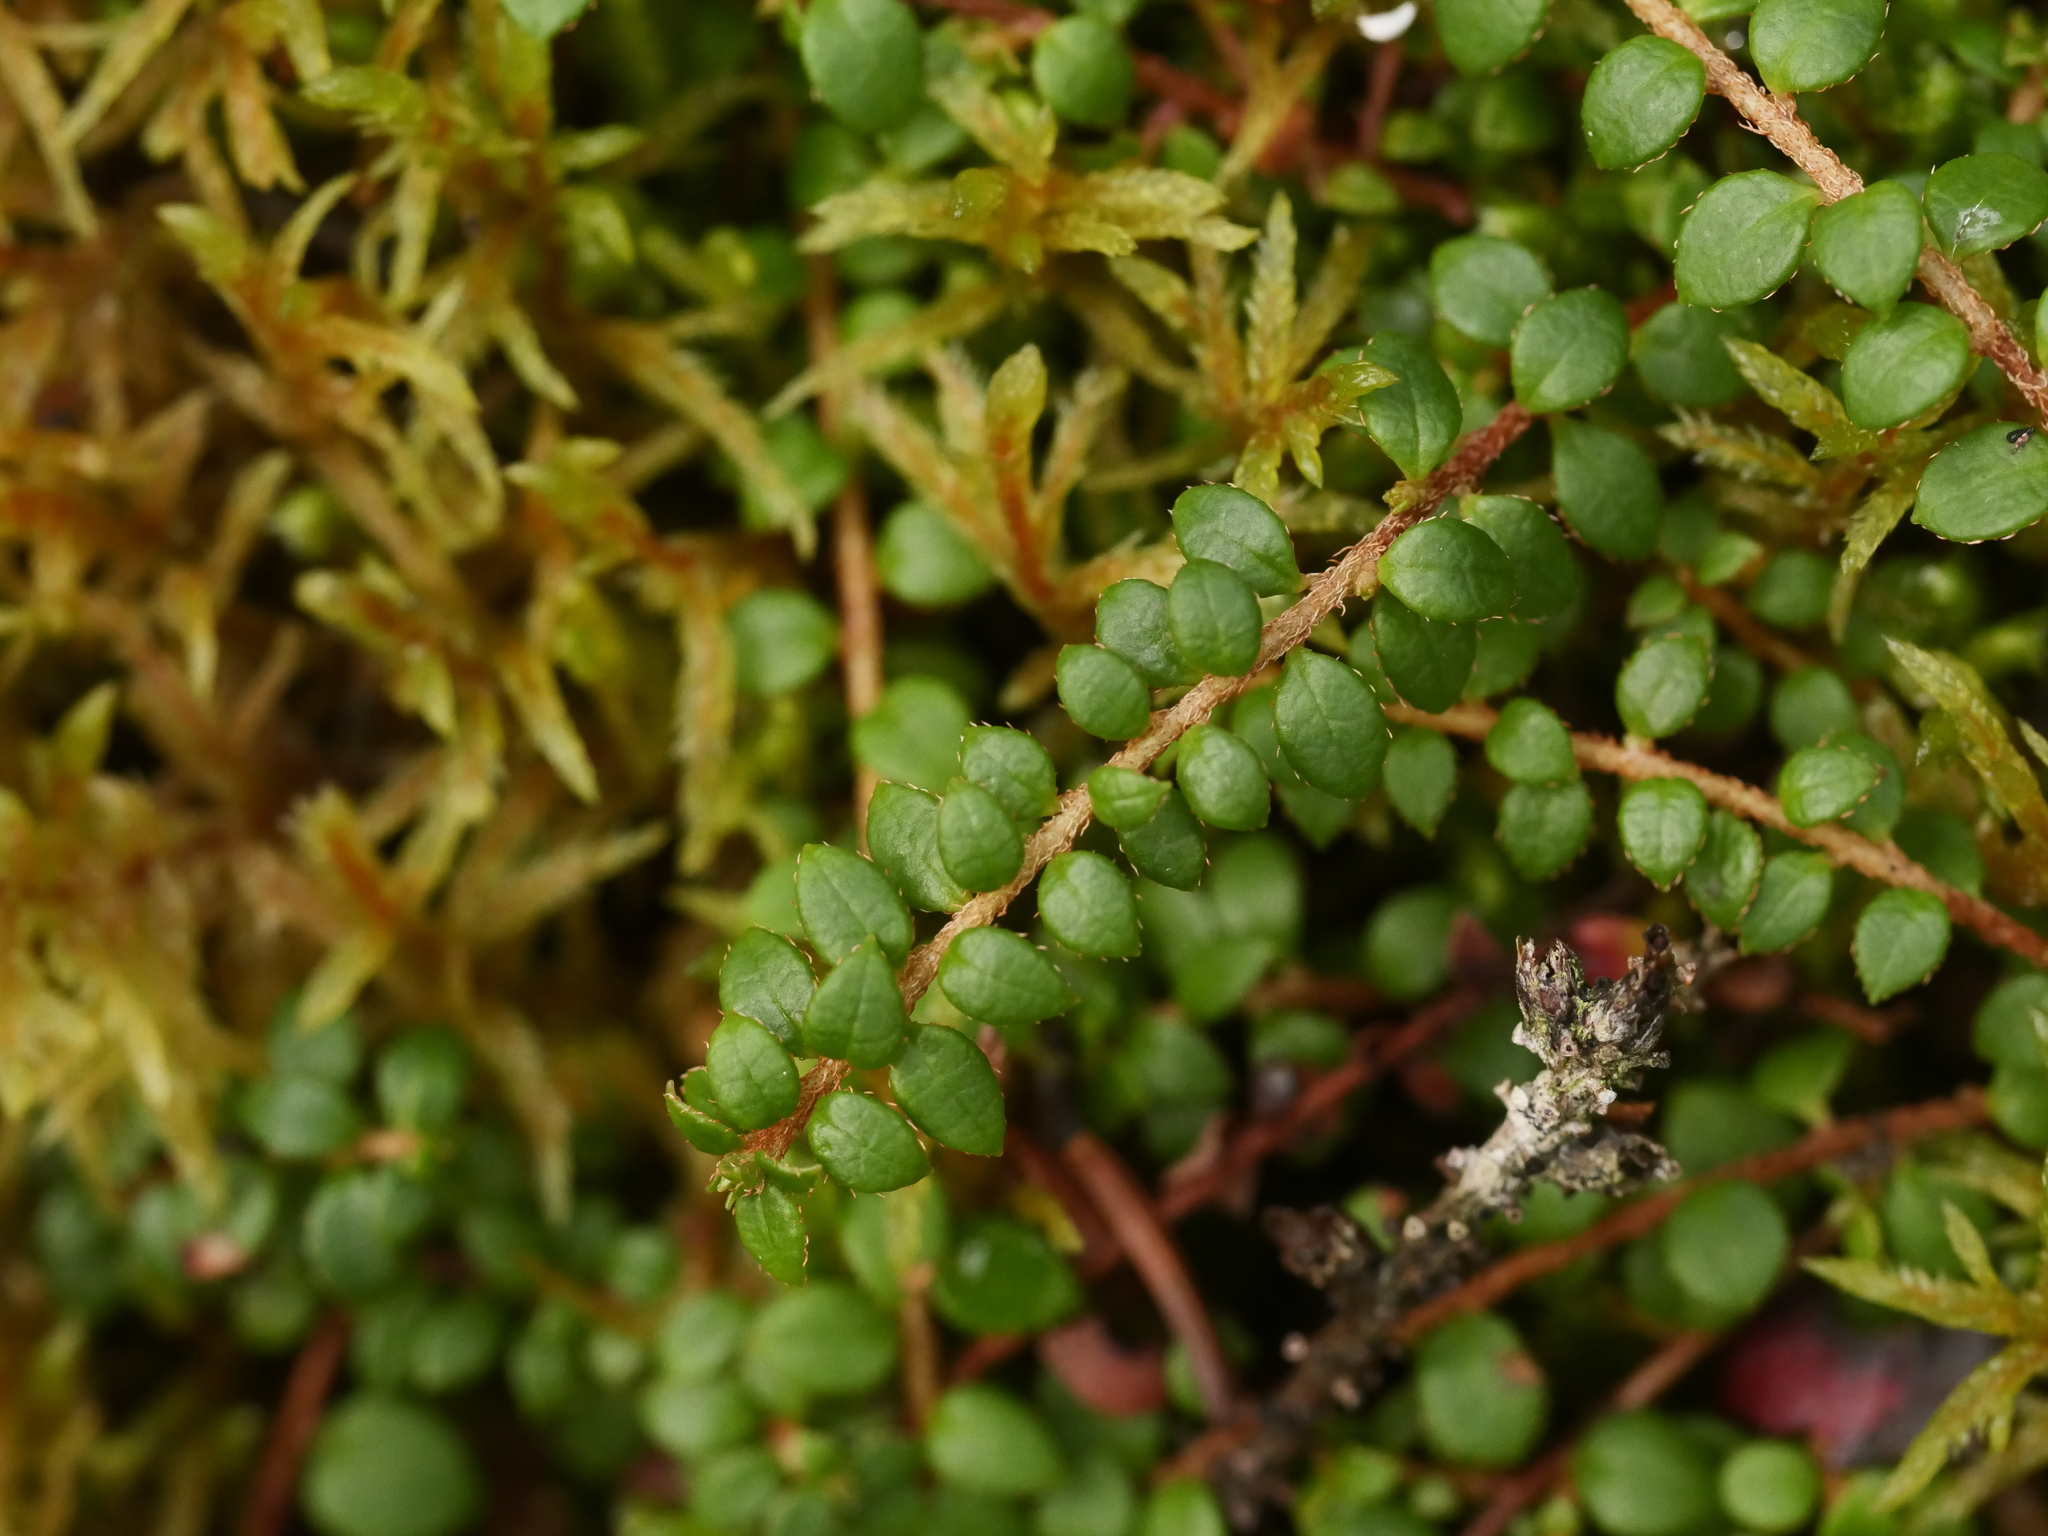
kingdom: Plantae
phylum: Tracheophyta
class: Magnoliopsida
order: Ericales
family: Ericaceae
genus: Gaultheria
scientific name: Gaultheria hispidula
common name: Cancer wintergreen
